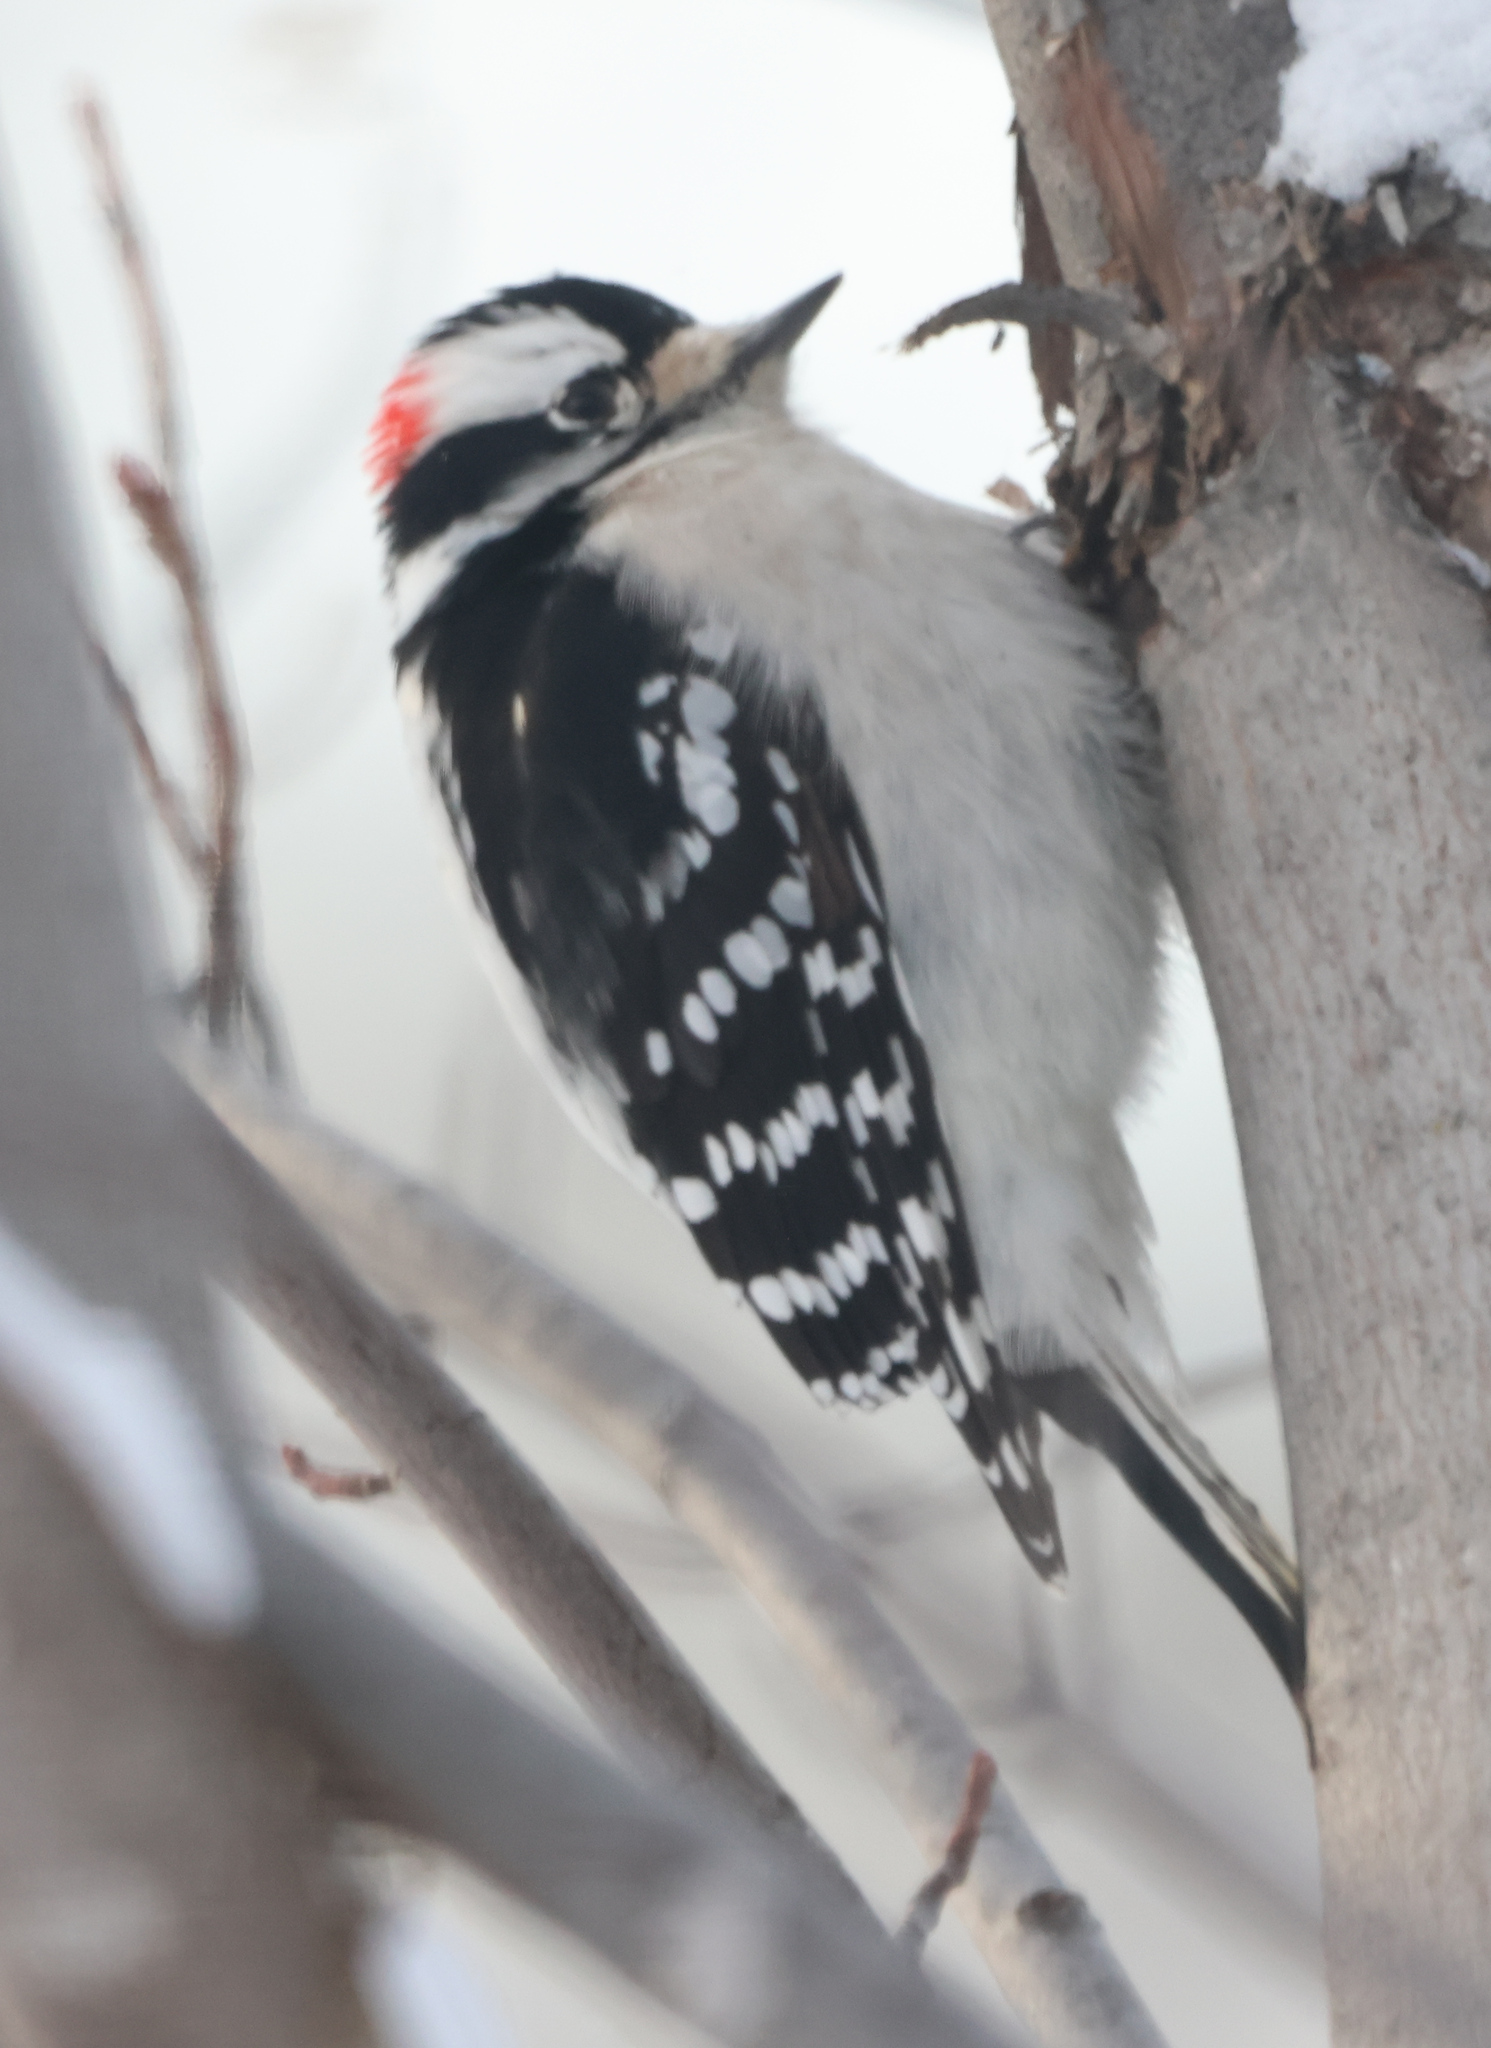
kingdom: Animalia
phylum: Chordata
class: Aves
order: Piciformes
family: Picidae
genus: Dryobates
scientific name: Dryobates pubescens
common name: Downy woodpecker
